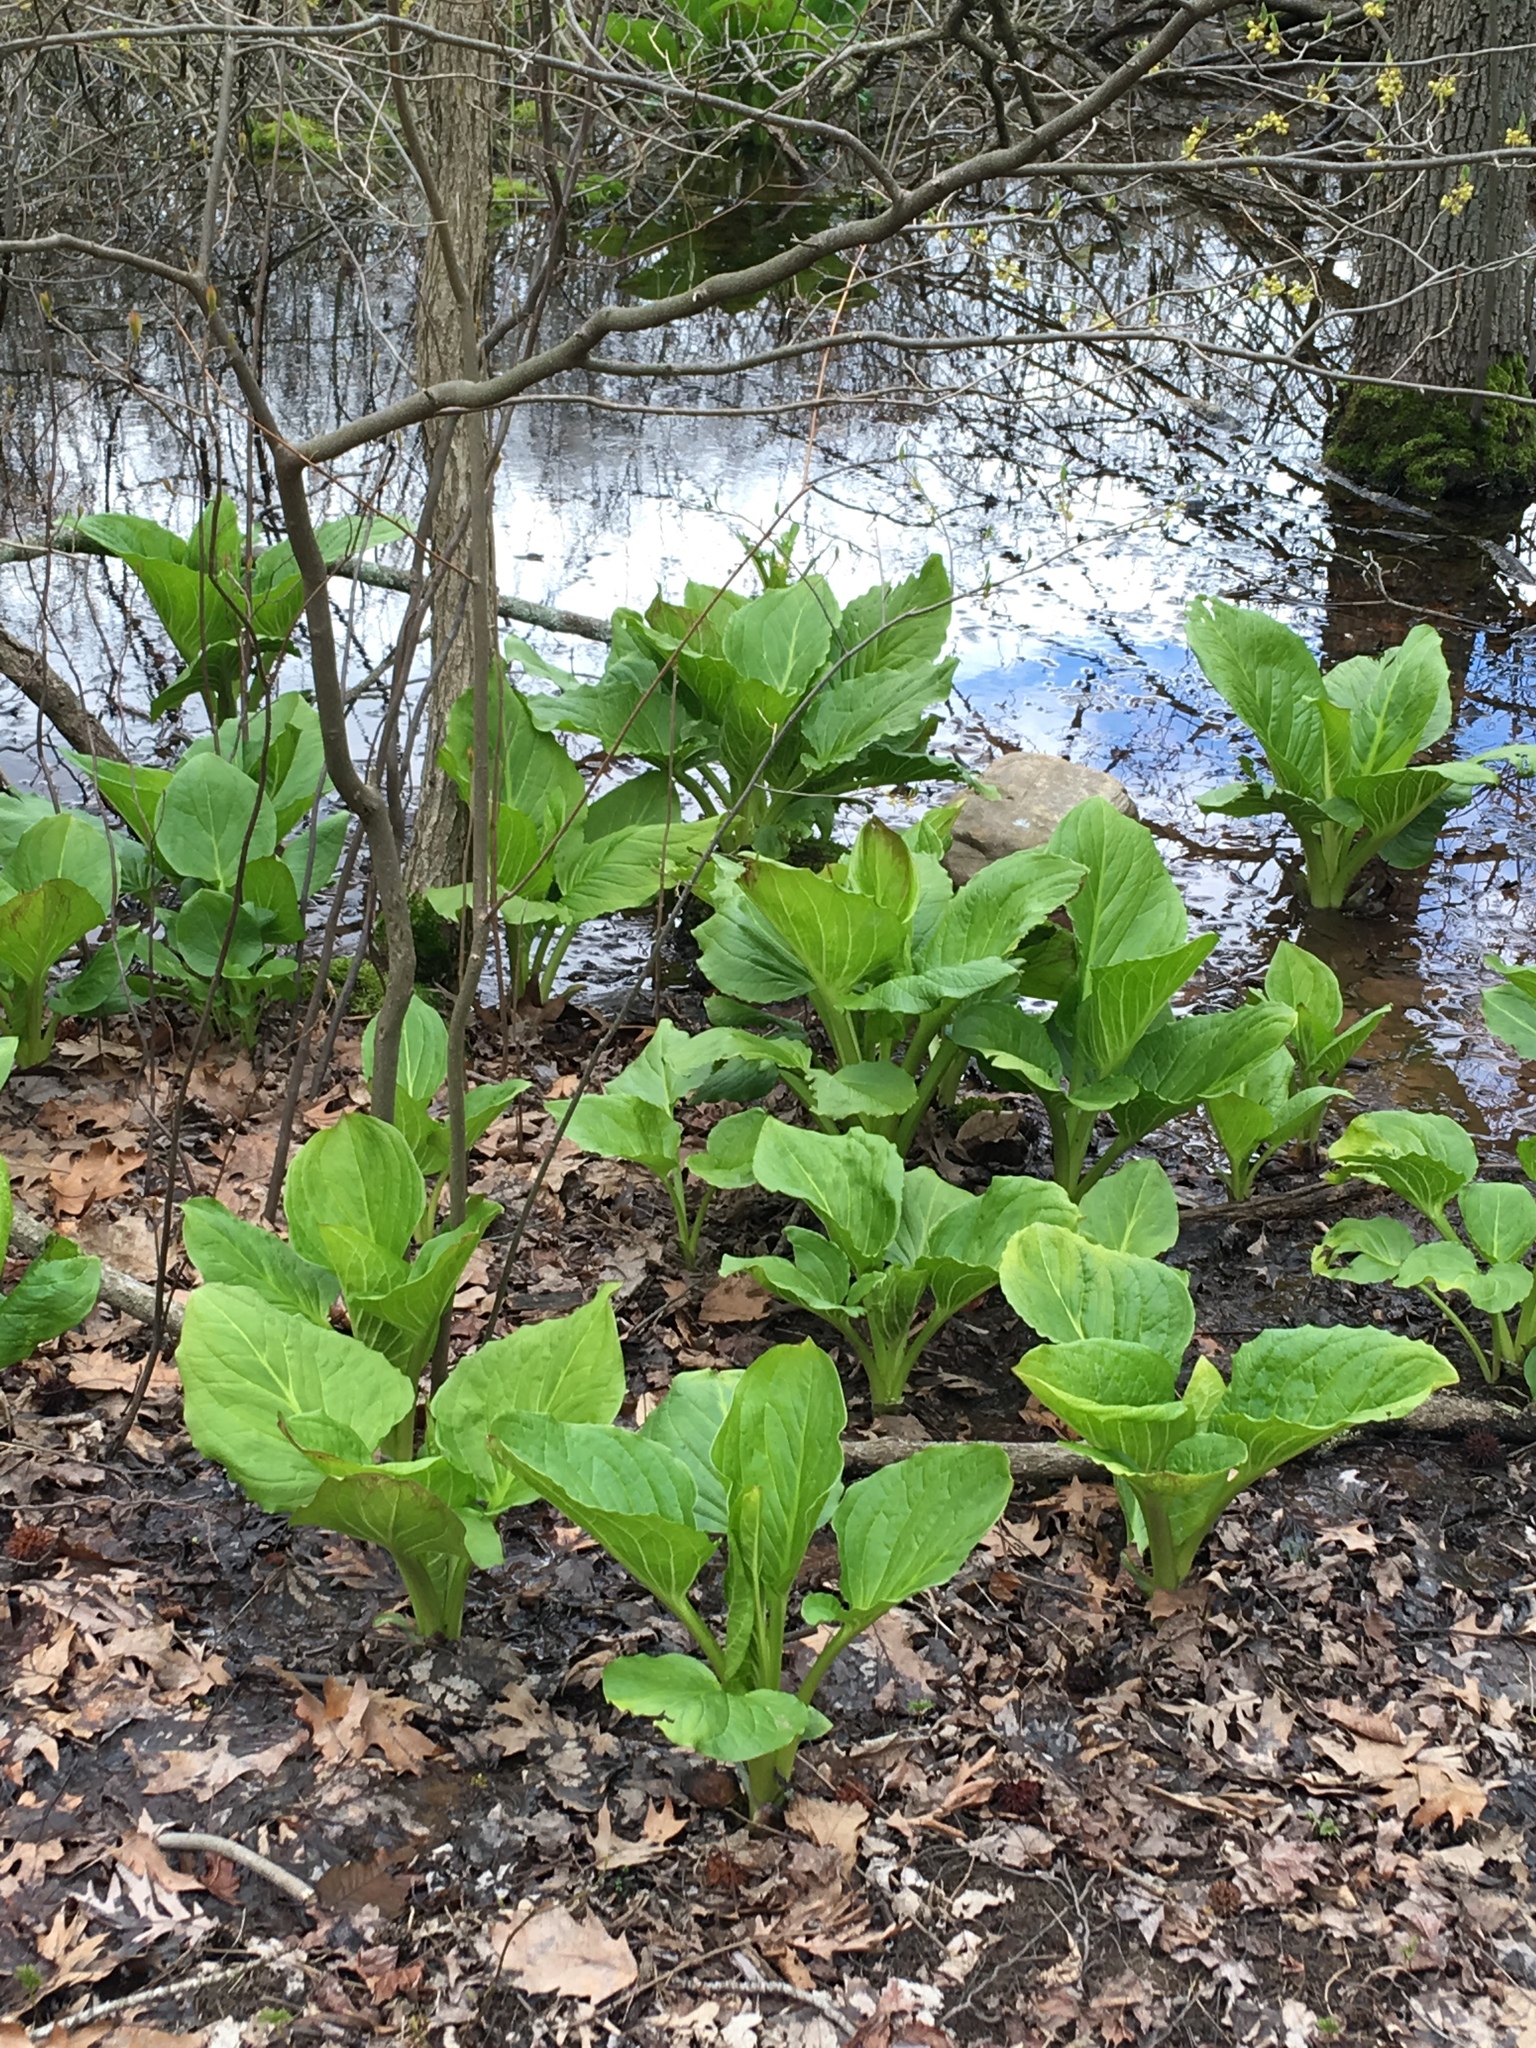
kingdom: Plantae
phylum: Tracheophyta
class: Liliopsida
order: Alismatales
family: Araceae
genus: Symplocarpus
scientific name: Symplocarpus foetidus
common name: Eastern skunk cabbage
